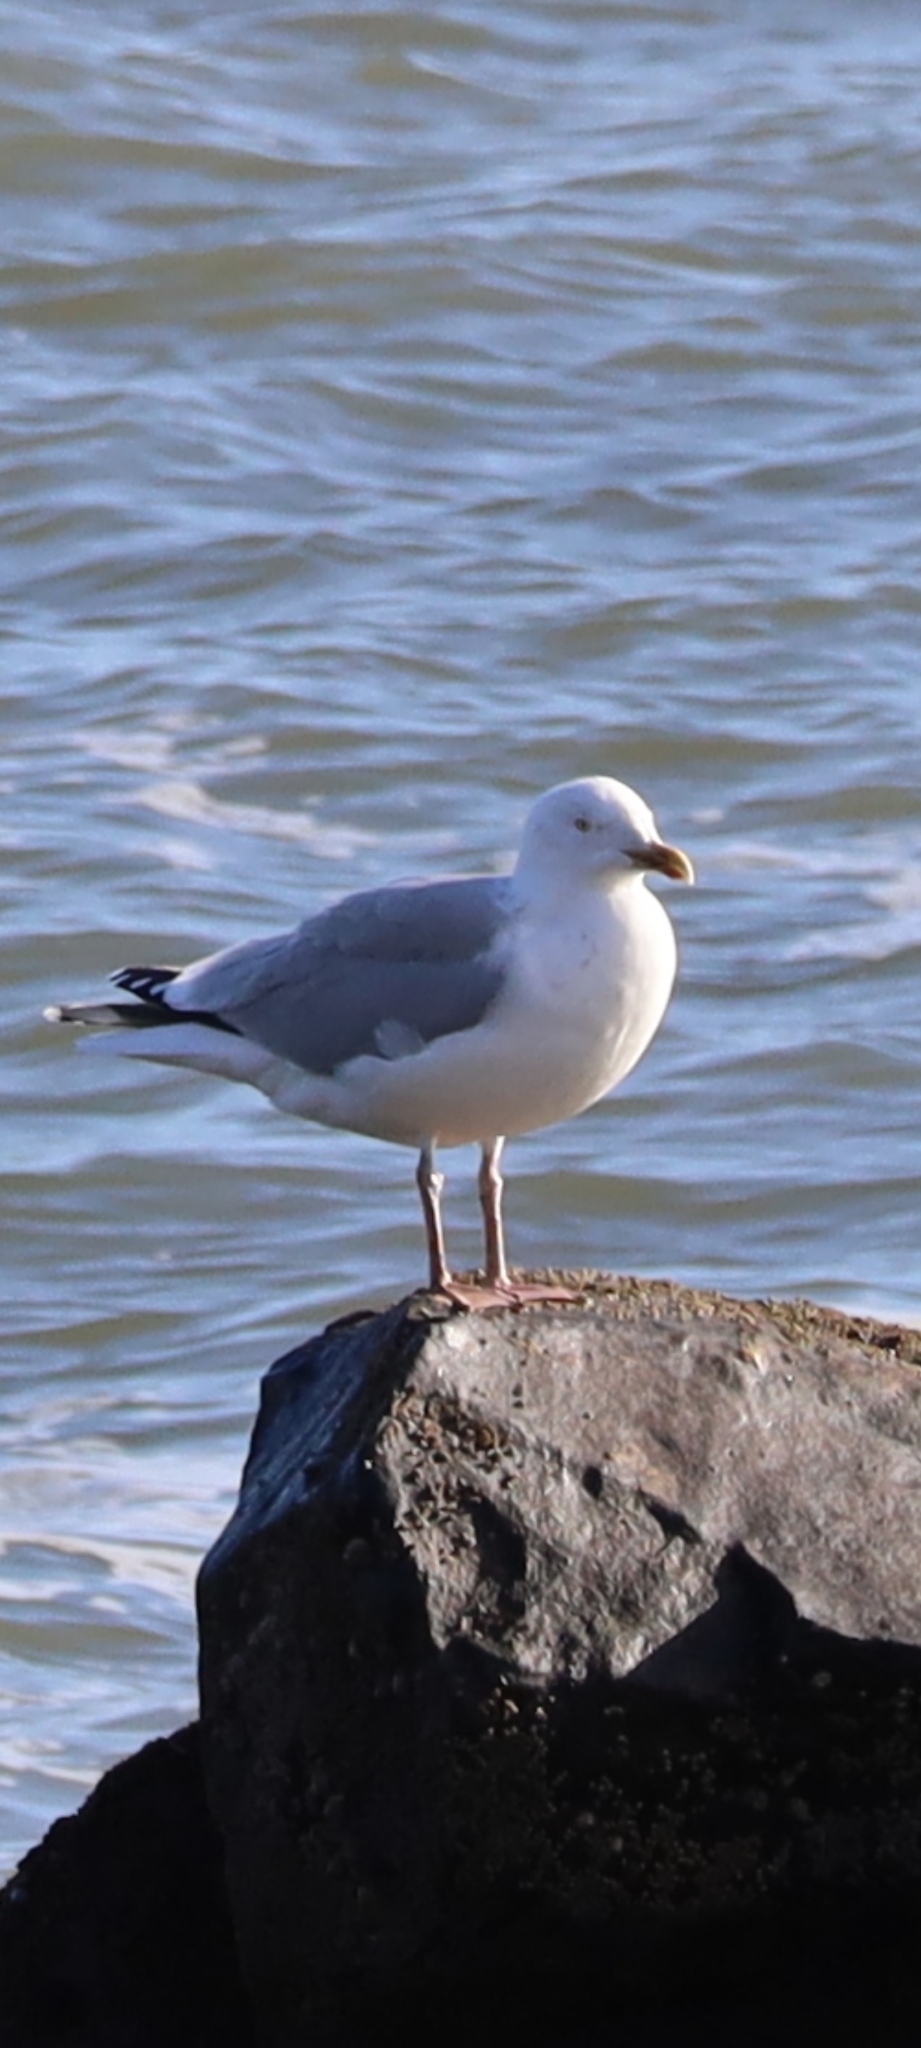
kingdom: Animalia
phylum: Chordata
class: Aves
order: Charadriiformes
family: Laridae
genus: Larus
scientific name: Larus argentatus
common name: Herring gull
